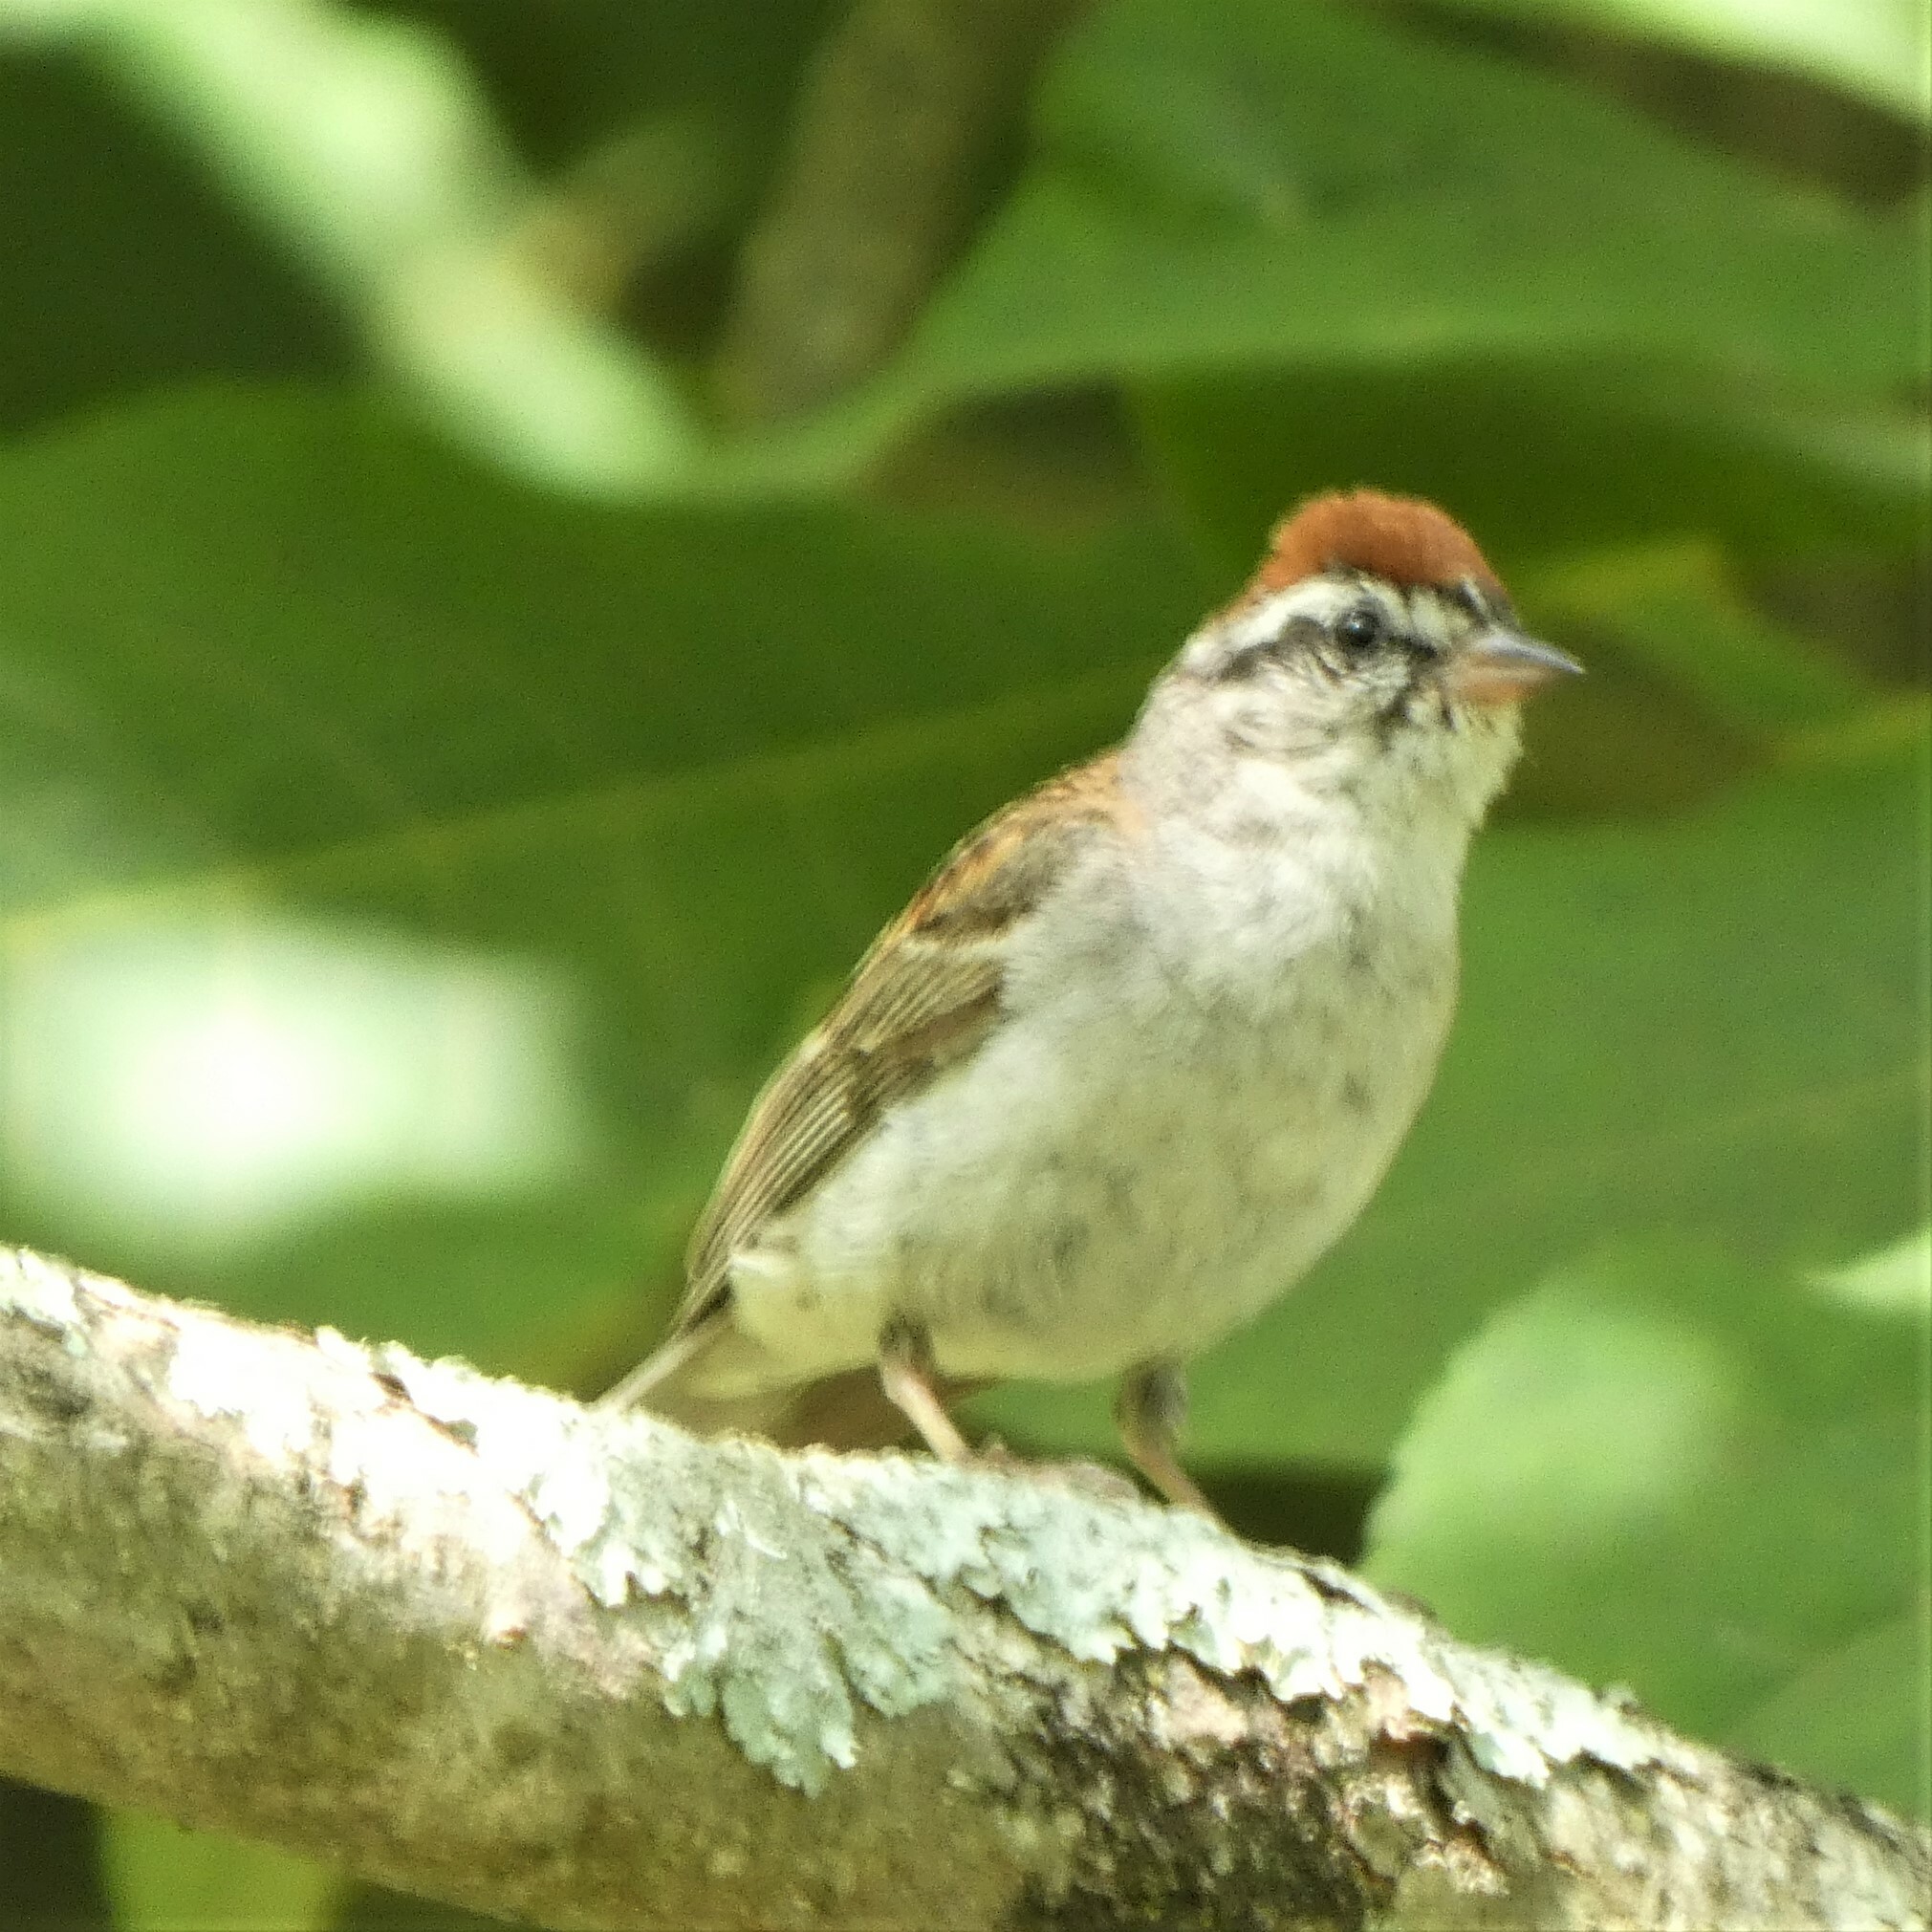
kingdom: Animalia
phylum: Chordata
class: Aves
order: Passeriformes
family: Passerellidae
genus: Spizella
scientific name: Spizella passerina
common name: Chipping sparrow
